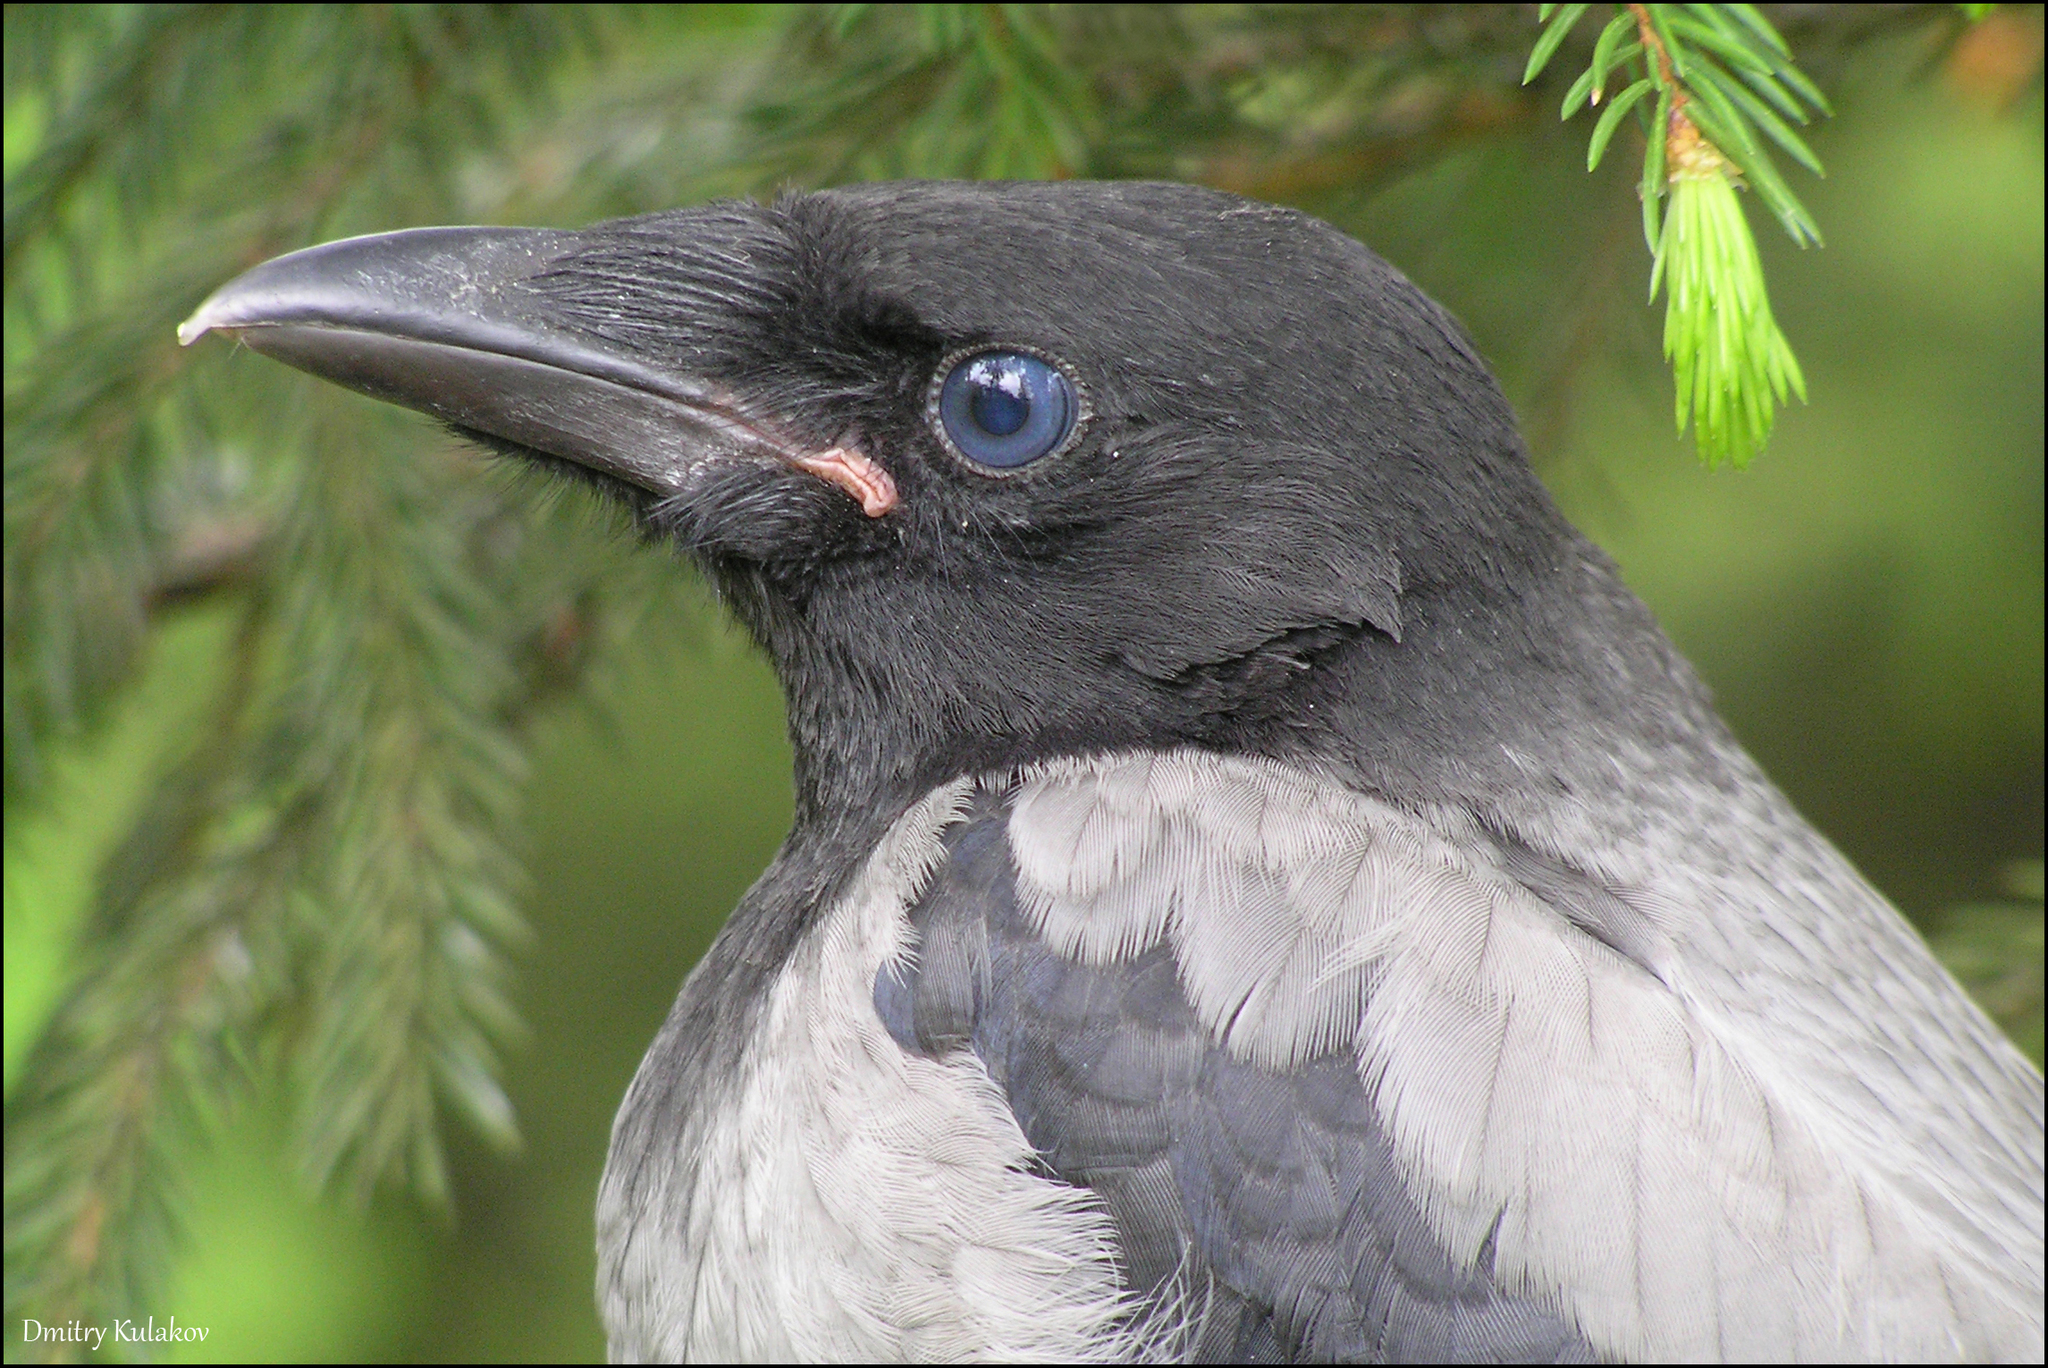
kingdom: Animalia
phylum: Chordata
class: Aves
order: Passeriformes
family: Corvidae
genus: Corvus
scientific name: Corvus cornix
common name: Hooded crow
